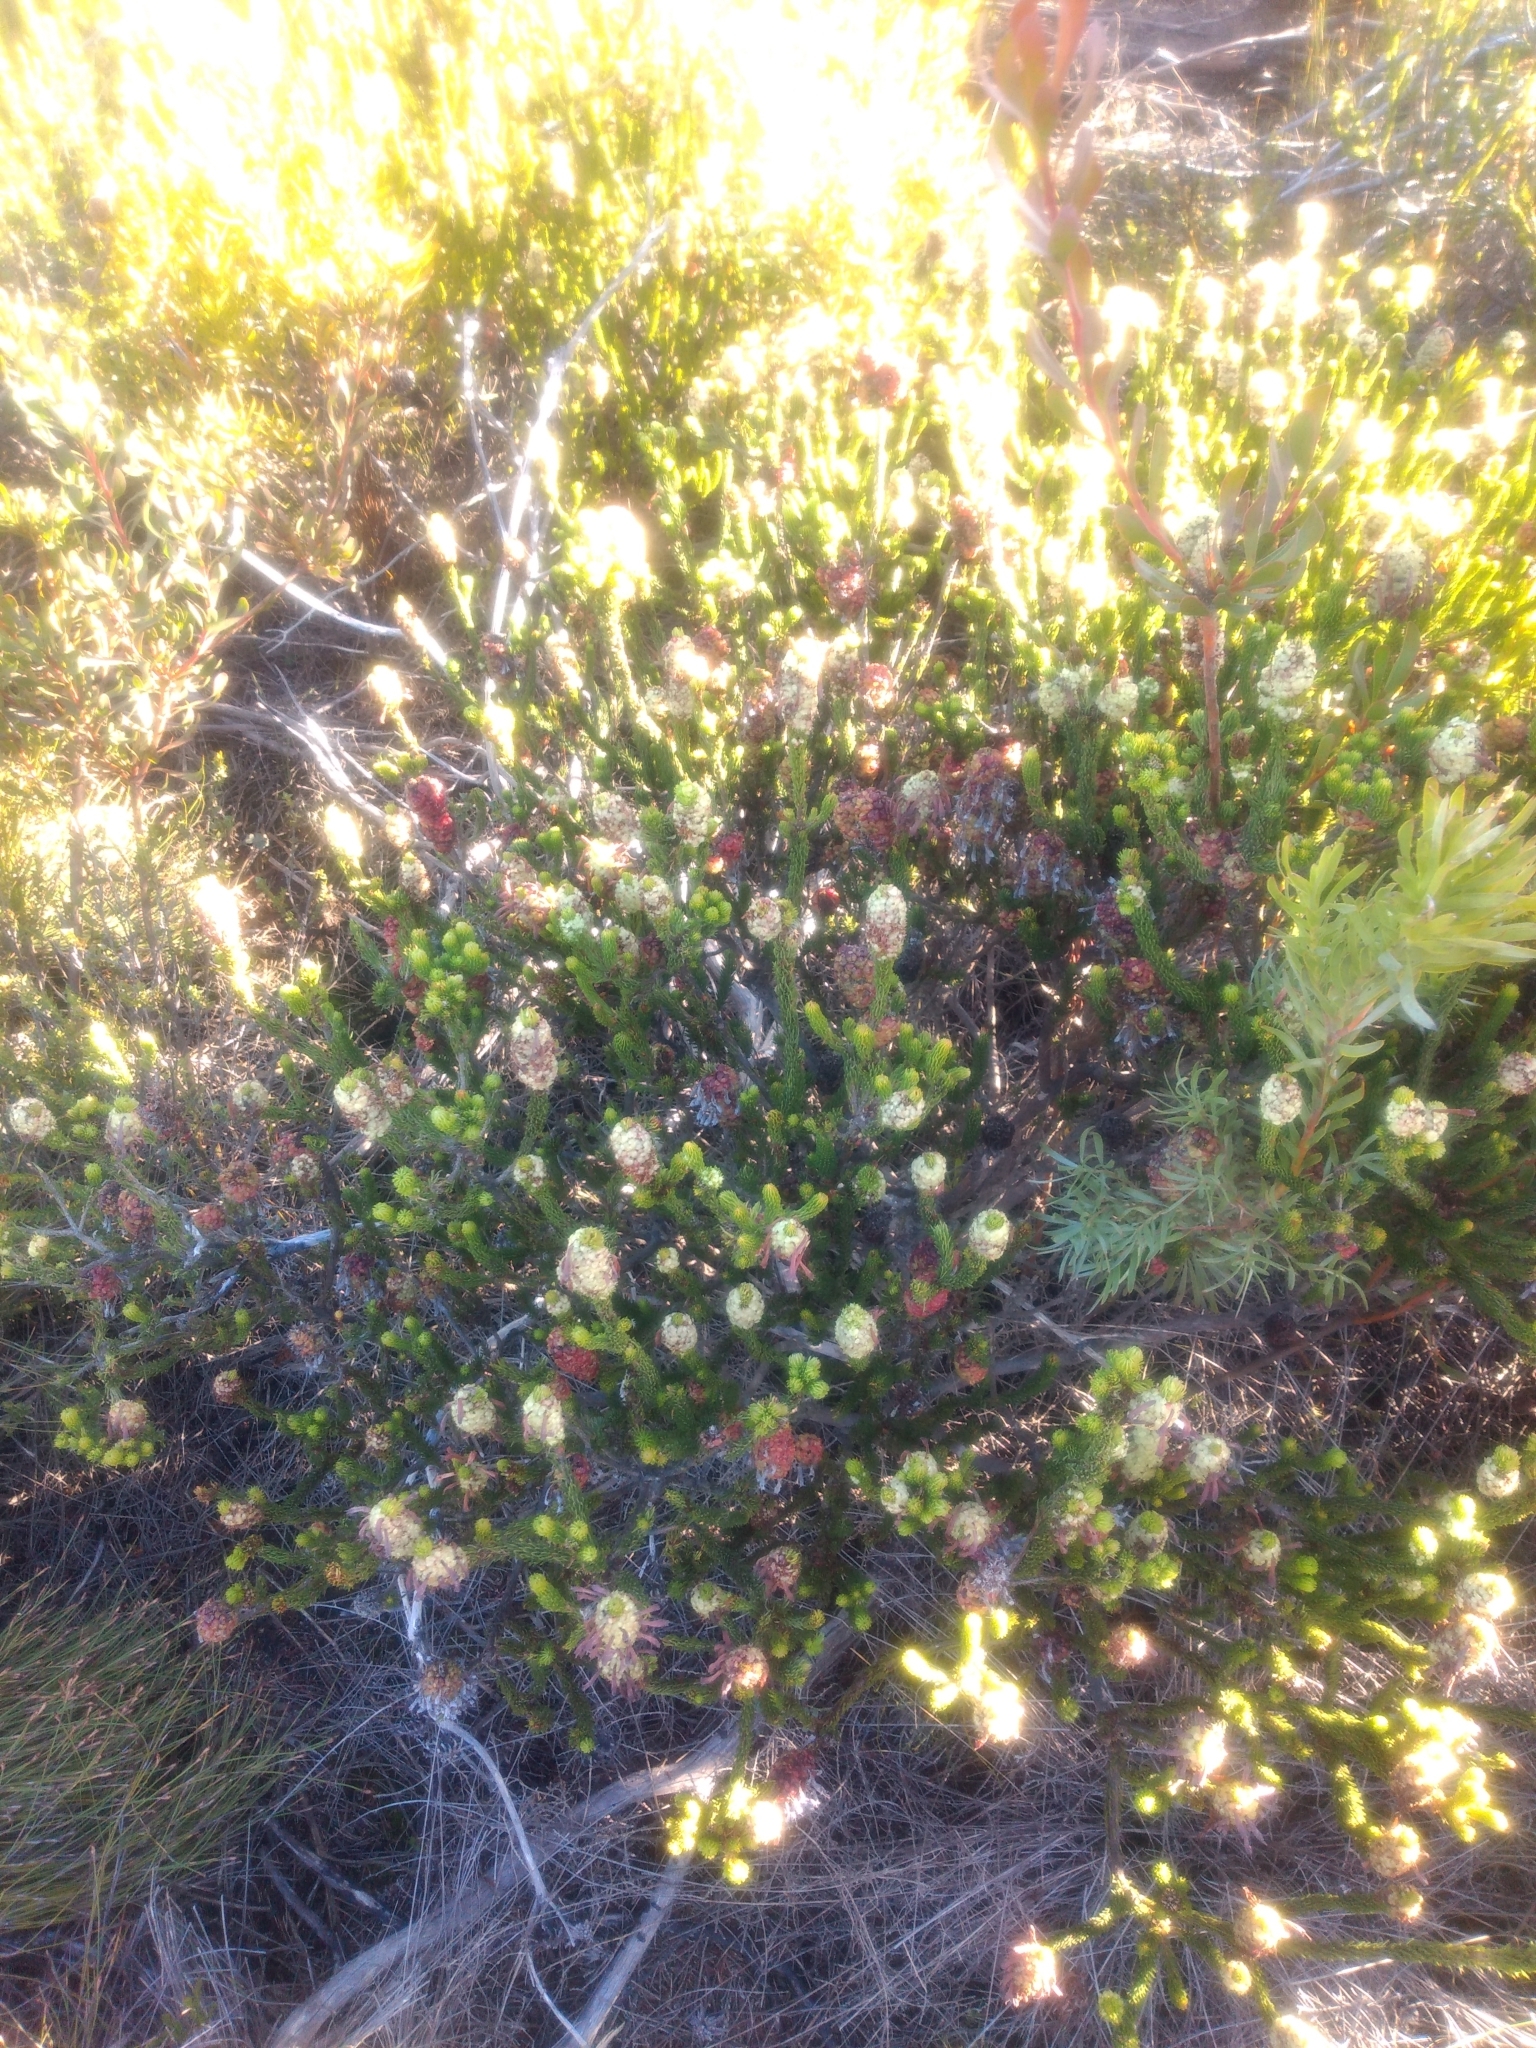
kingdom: Plantae
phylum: Tracheophyta
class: Magnoliopsida
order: Ericales
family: Ericaceae
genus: Erica
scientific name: Erica sessiliflora
